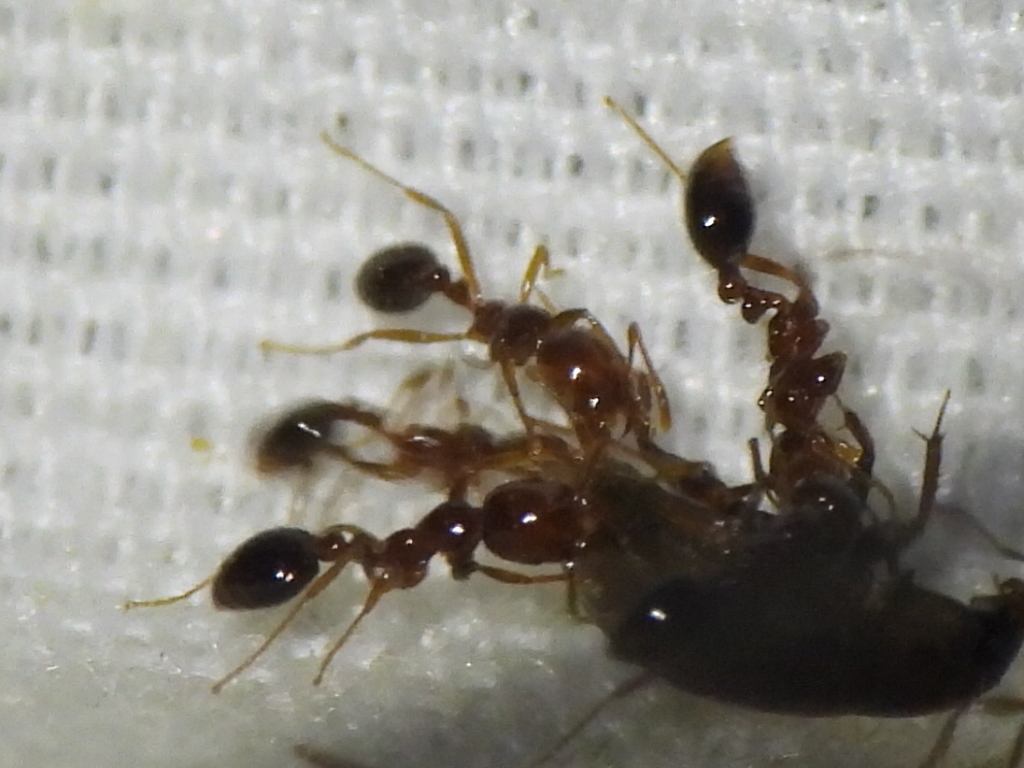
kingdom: Animalia
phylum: Arthropoda
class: Insecta
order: Hymenoptera
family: Formicidae
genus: Solenopsis
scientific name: Solenopsis invicta
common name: Red imported fire ant
